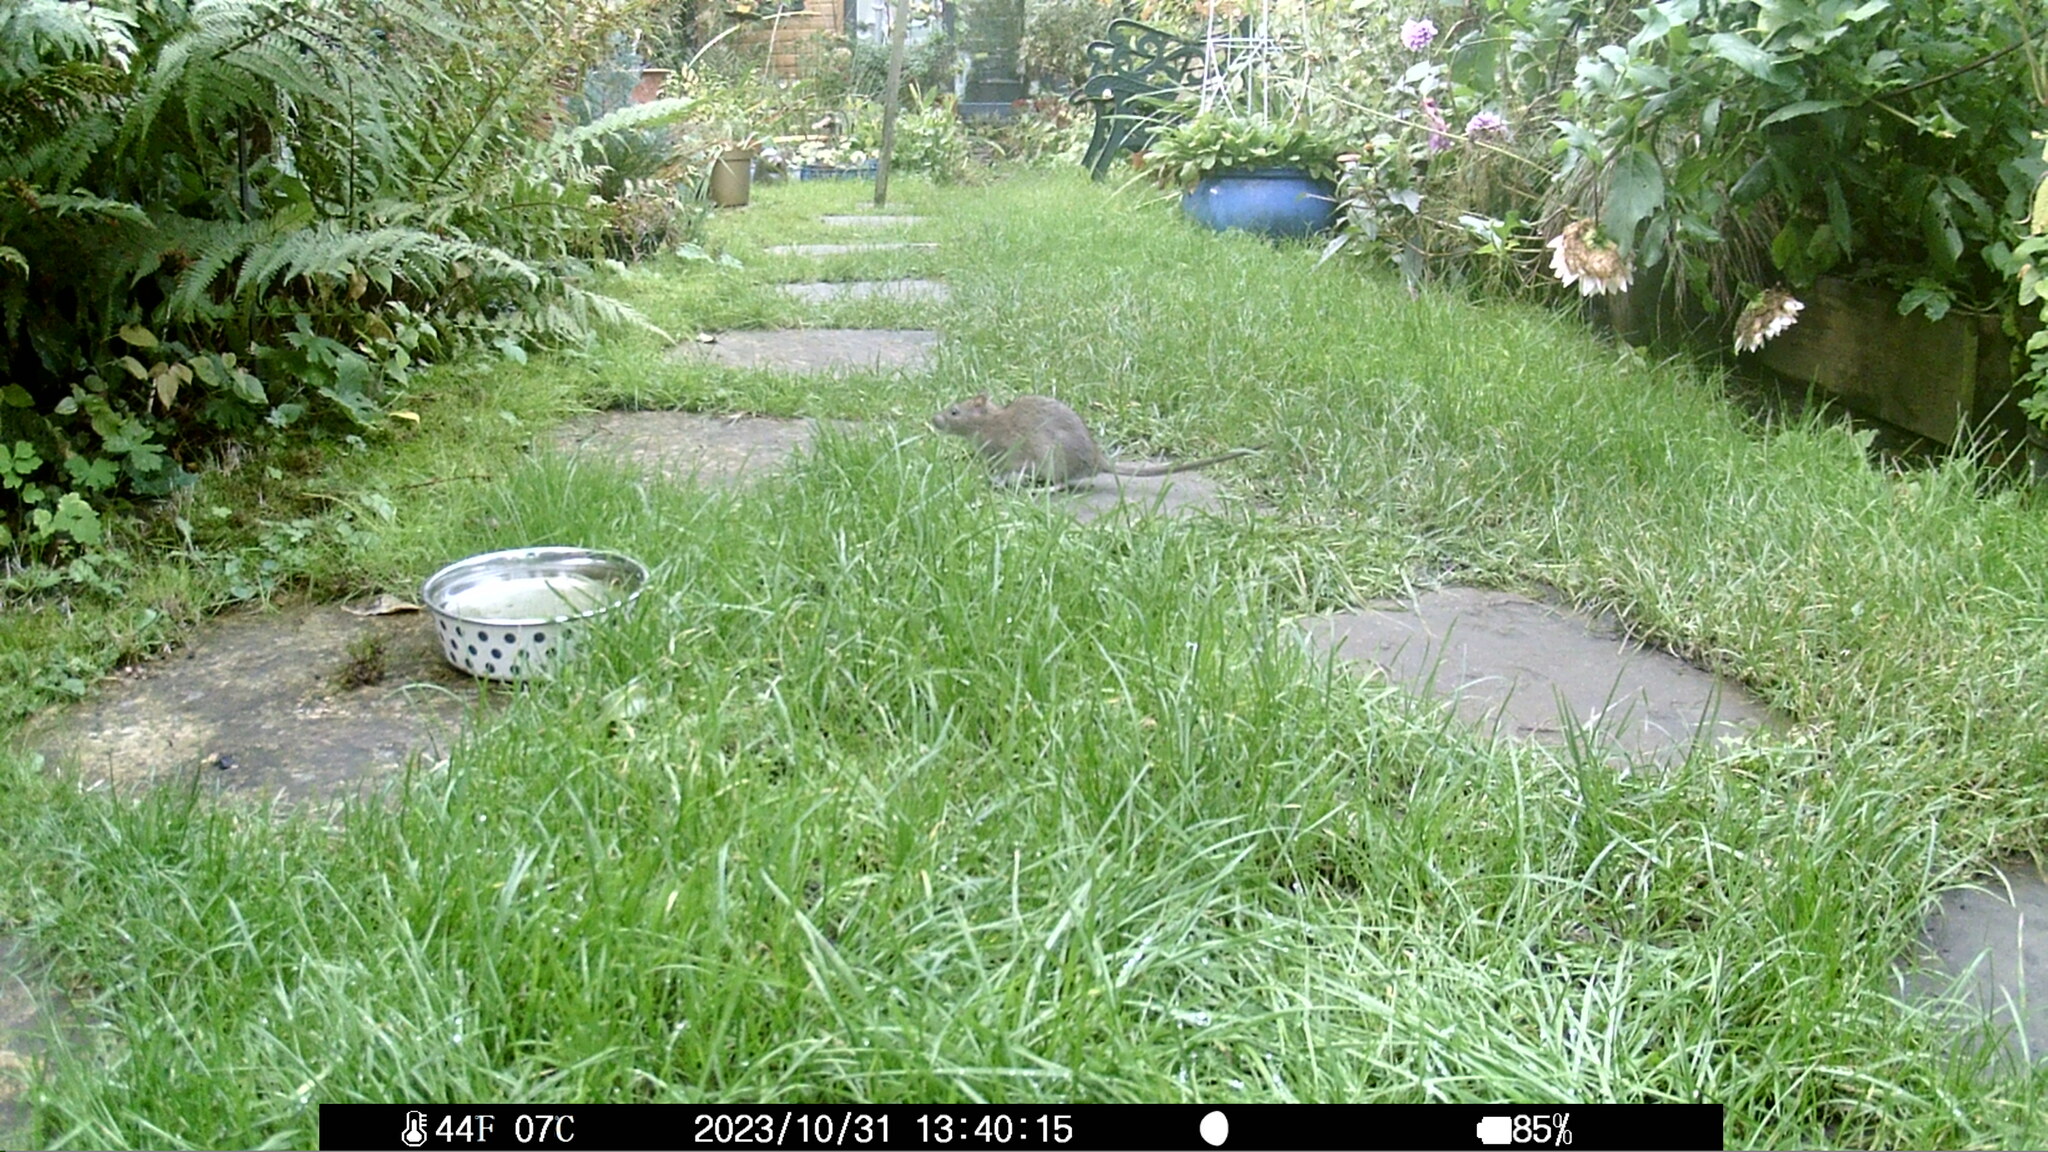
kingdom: Animalia
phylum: Chordata
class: Mammalia
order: Rodentia
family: Muridae
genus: Rattus
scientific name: Rattus norvegicus
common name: Brown rat
